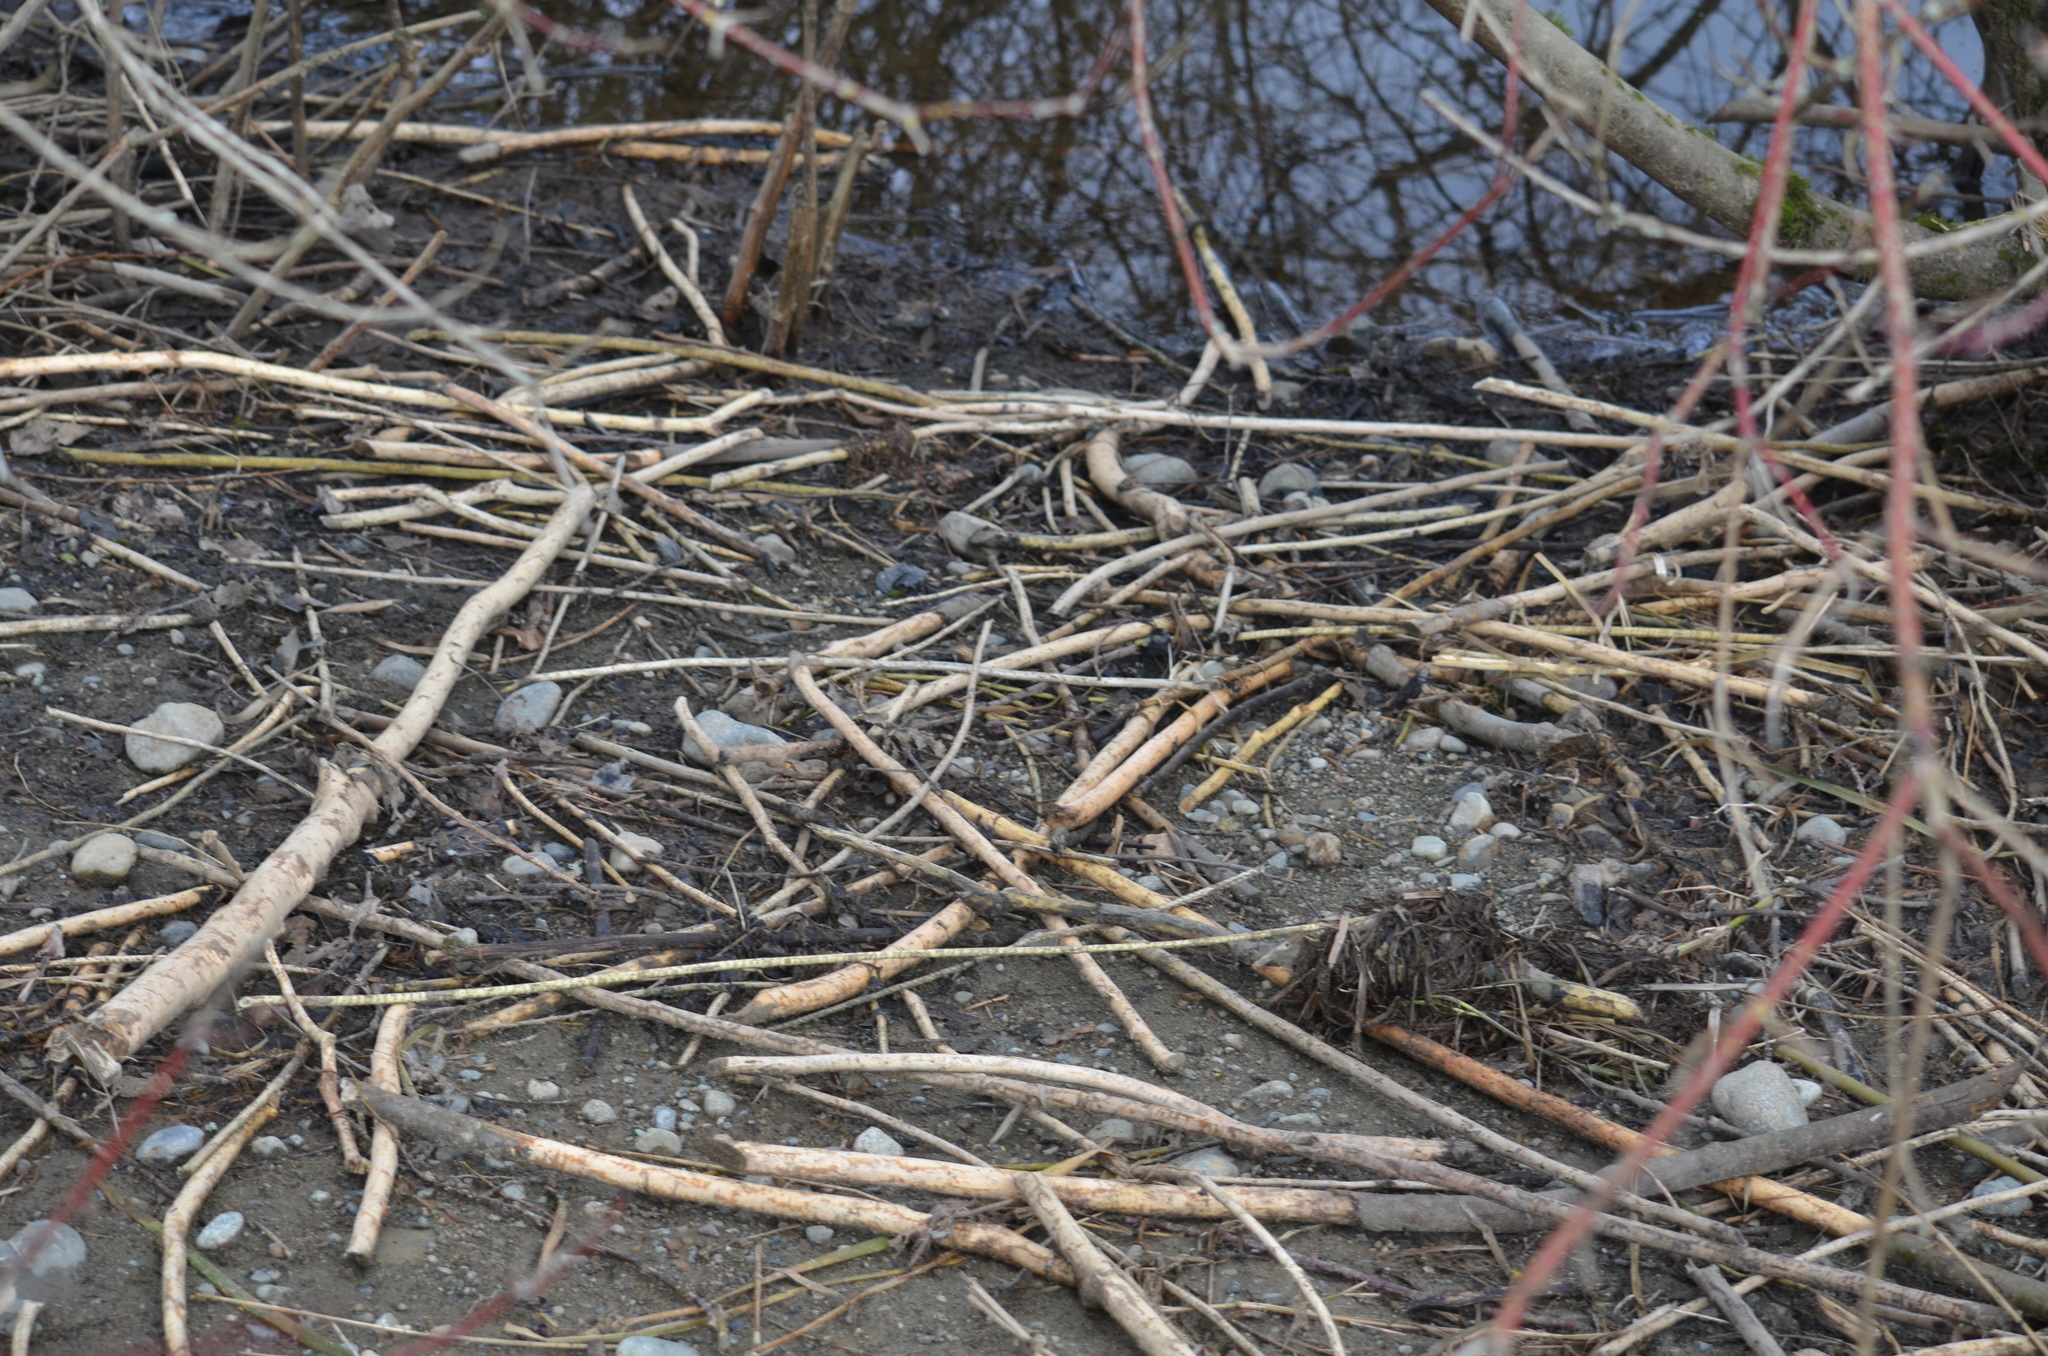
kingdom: Animalia
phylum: Chordata
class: Mammalia
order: Rodentia
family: Castoridae
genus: Castor
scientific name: Castor canadensis
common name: American beaver
